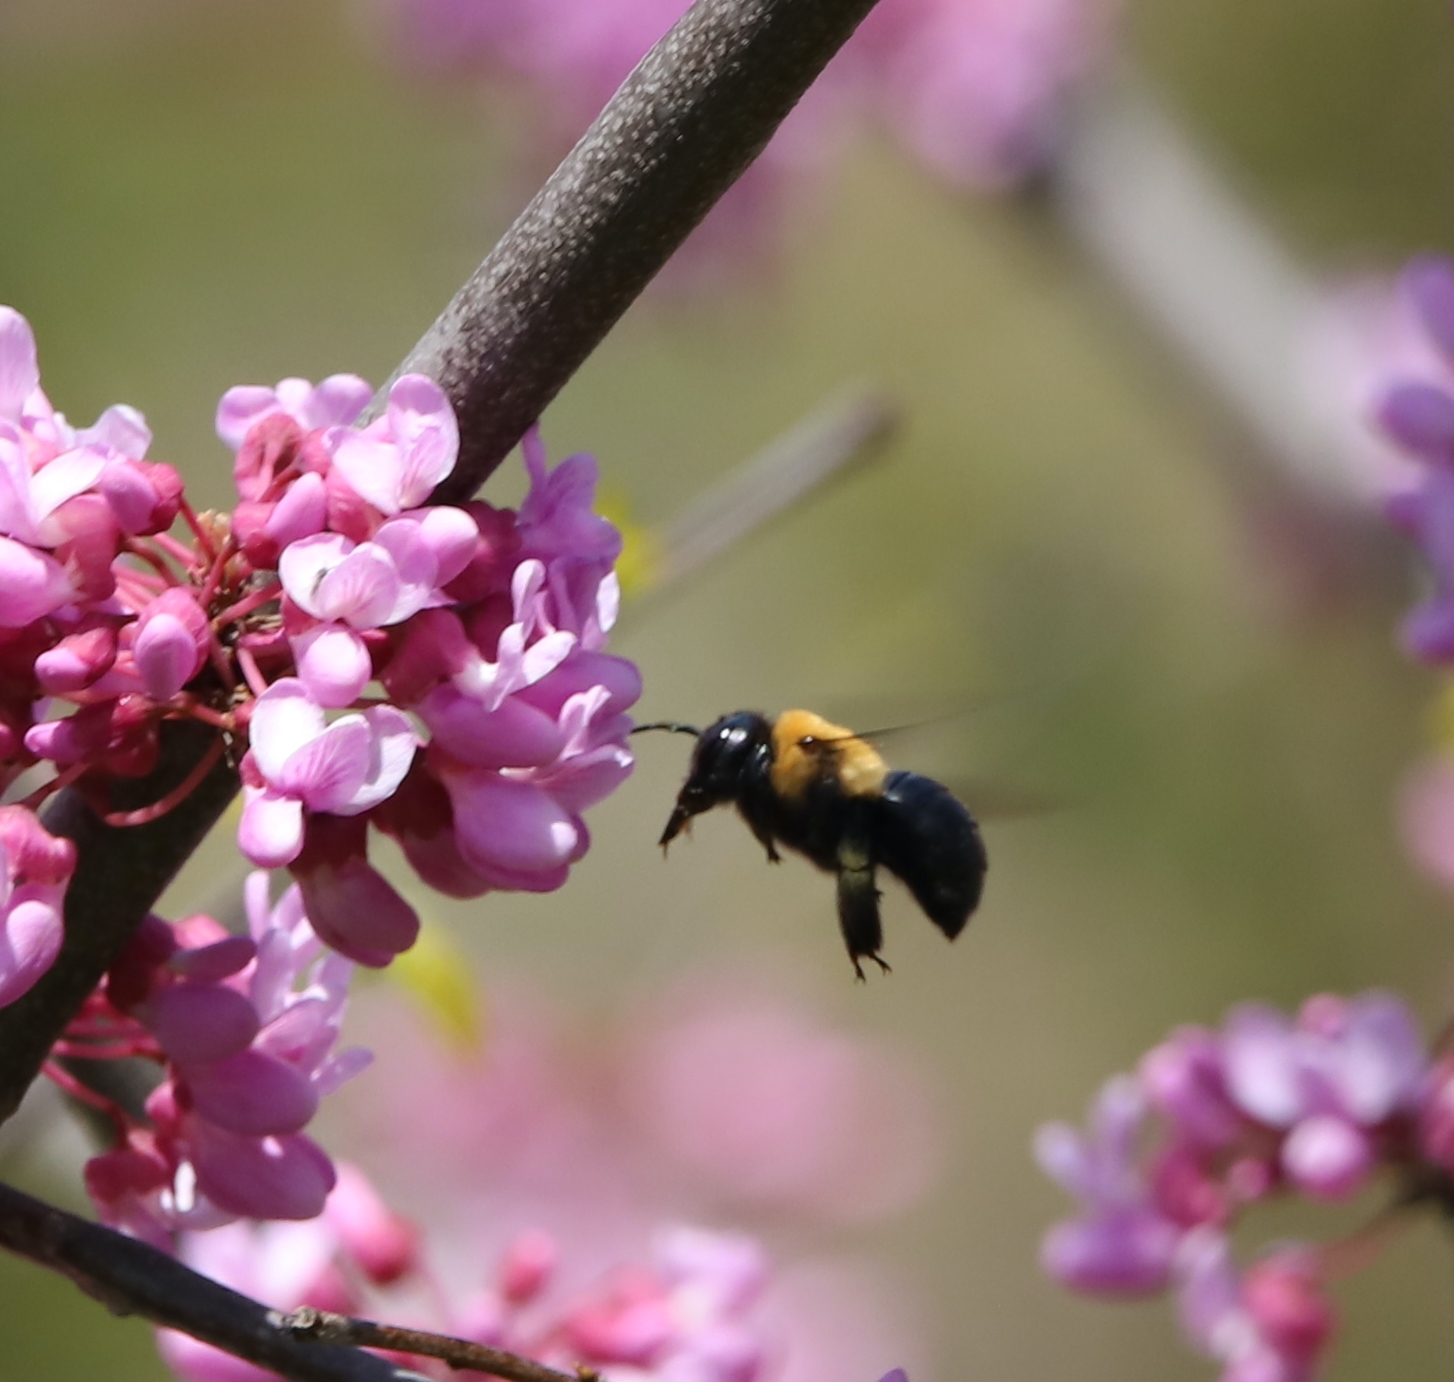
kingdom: Animalia
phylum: Arthropoda
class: Insecta
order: Hymenoptera
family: Apidae
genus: Xylocopa
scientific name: Xylocopa virginica
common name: Carpenter bee
